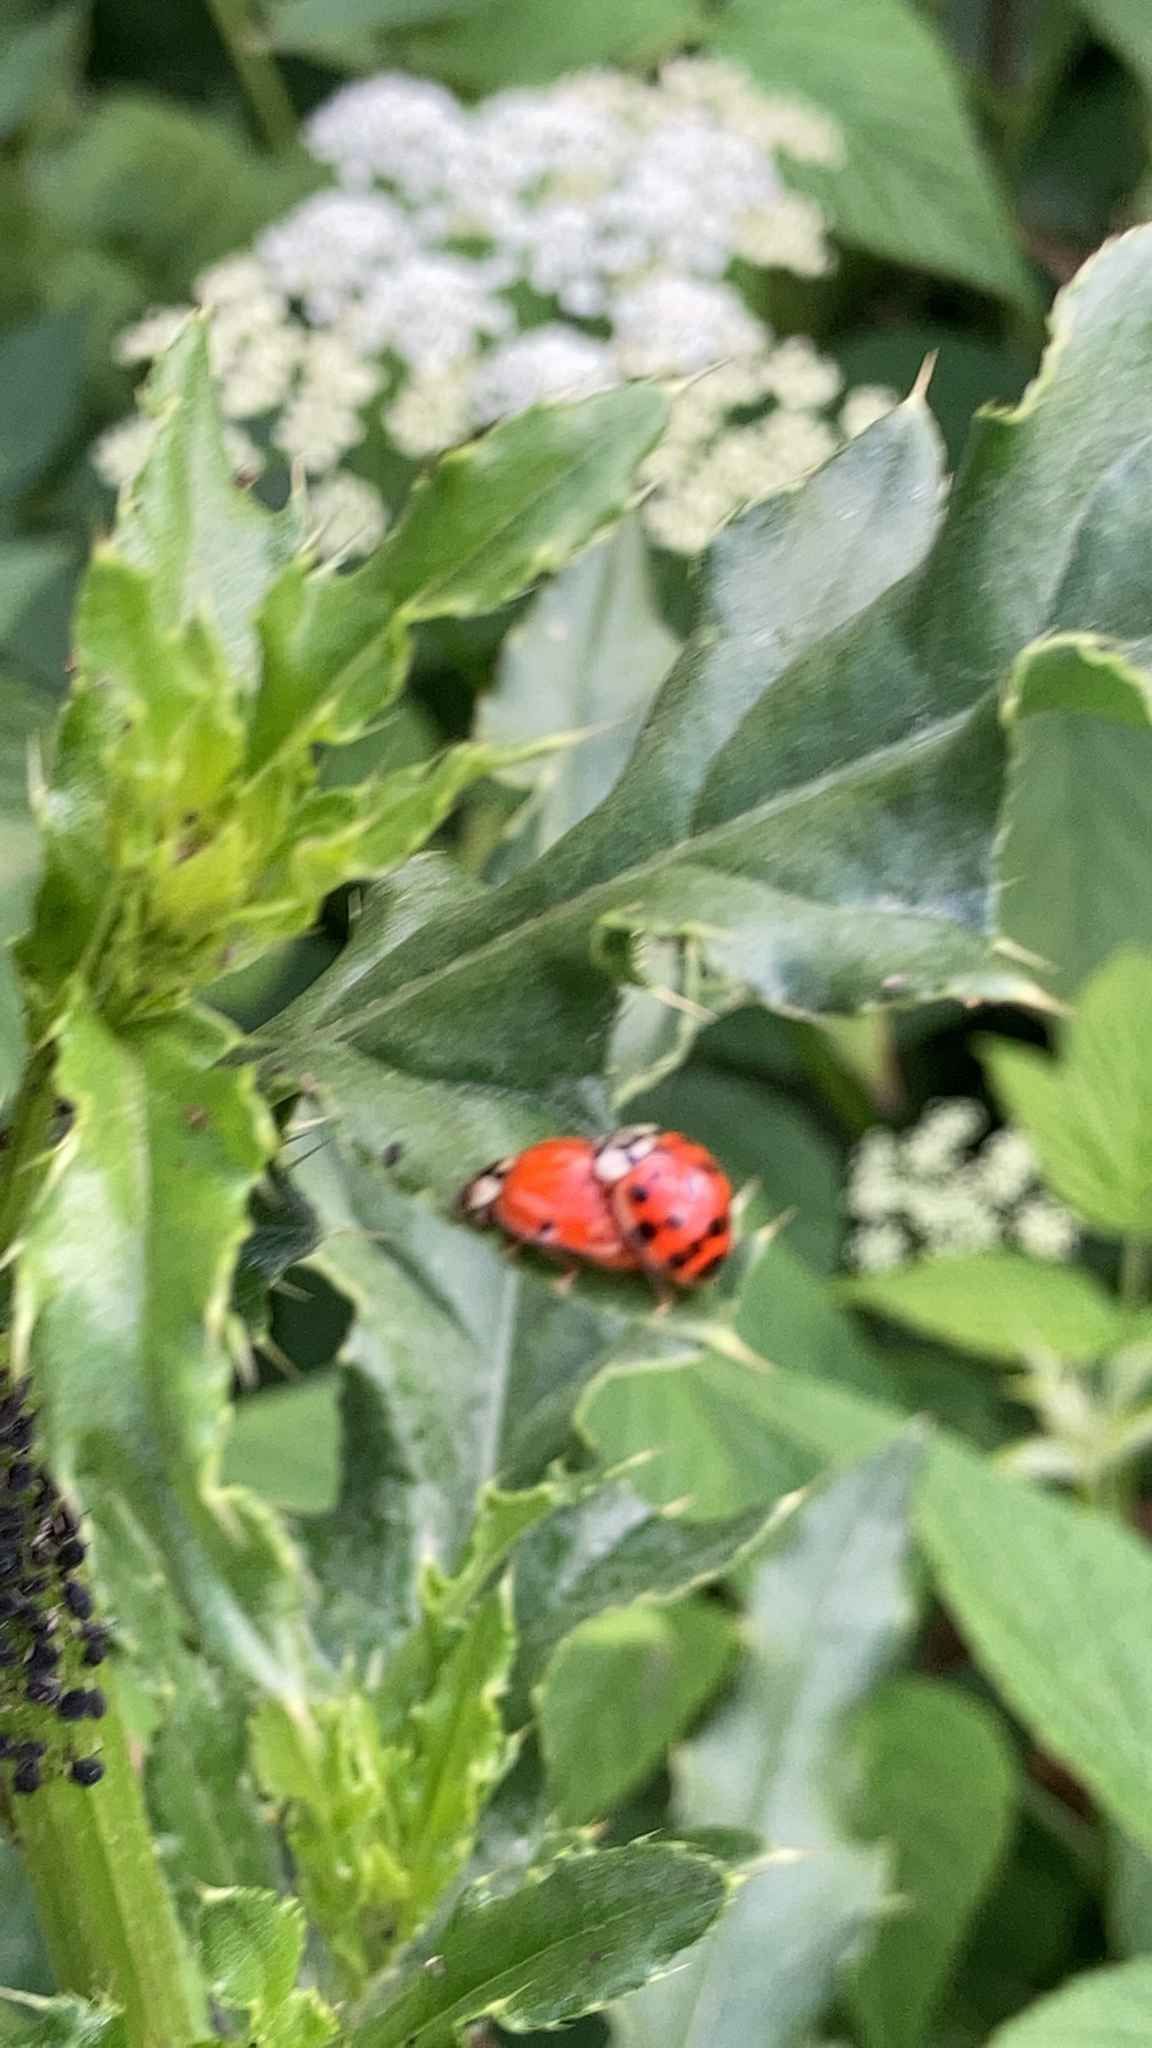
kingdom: Animalia
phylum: Arthropoda
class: Insecta
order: Coleoptera
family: Coccinellidae
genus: Harmonia
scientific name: Harmonia axyridis
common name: Harlequin ladybird
